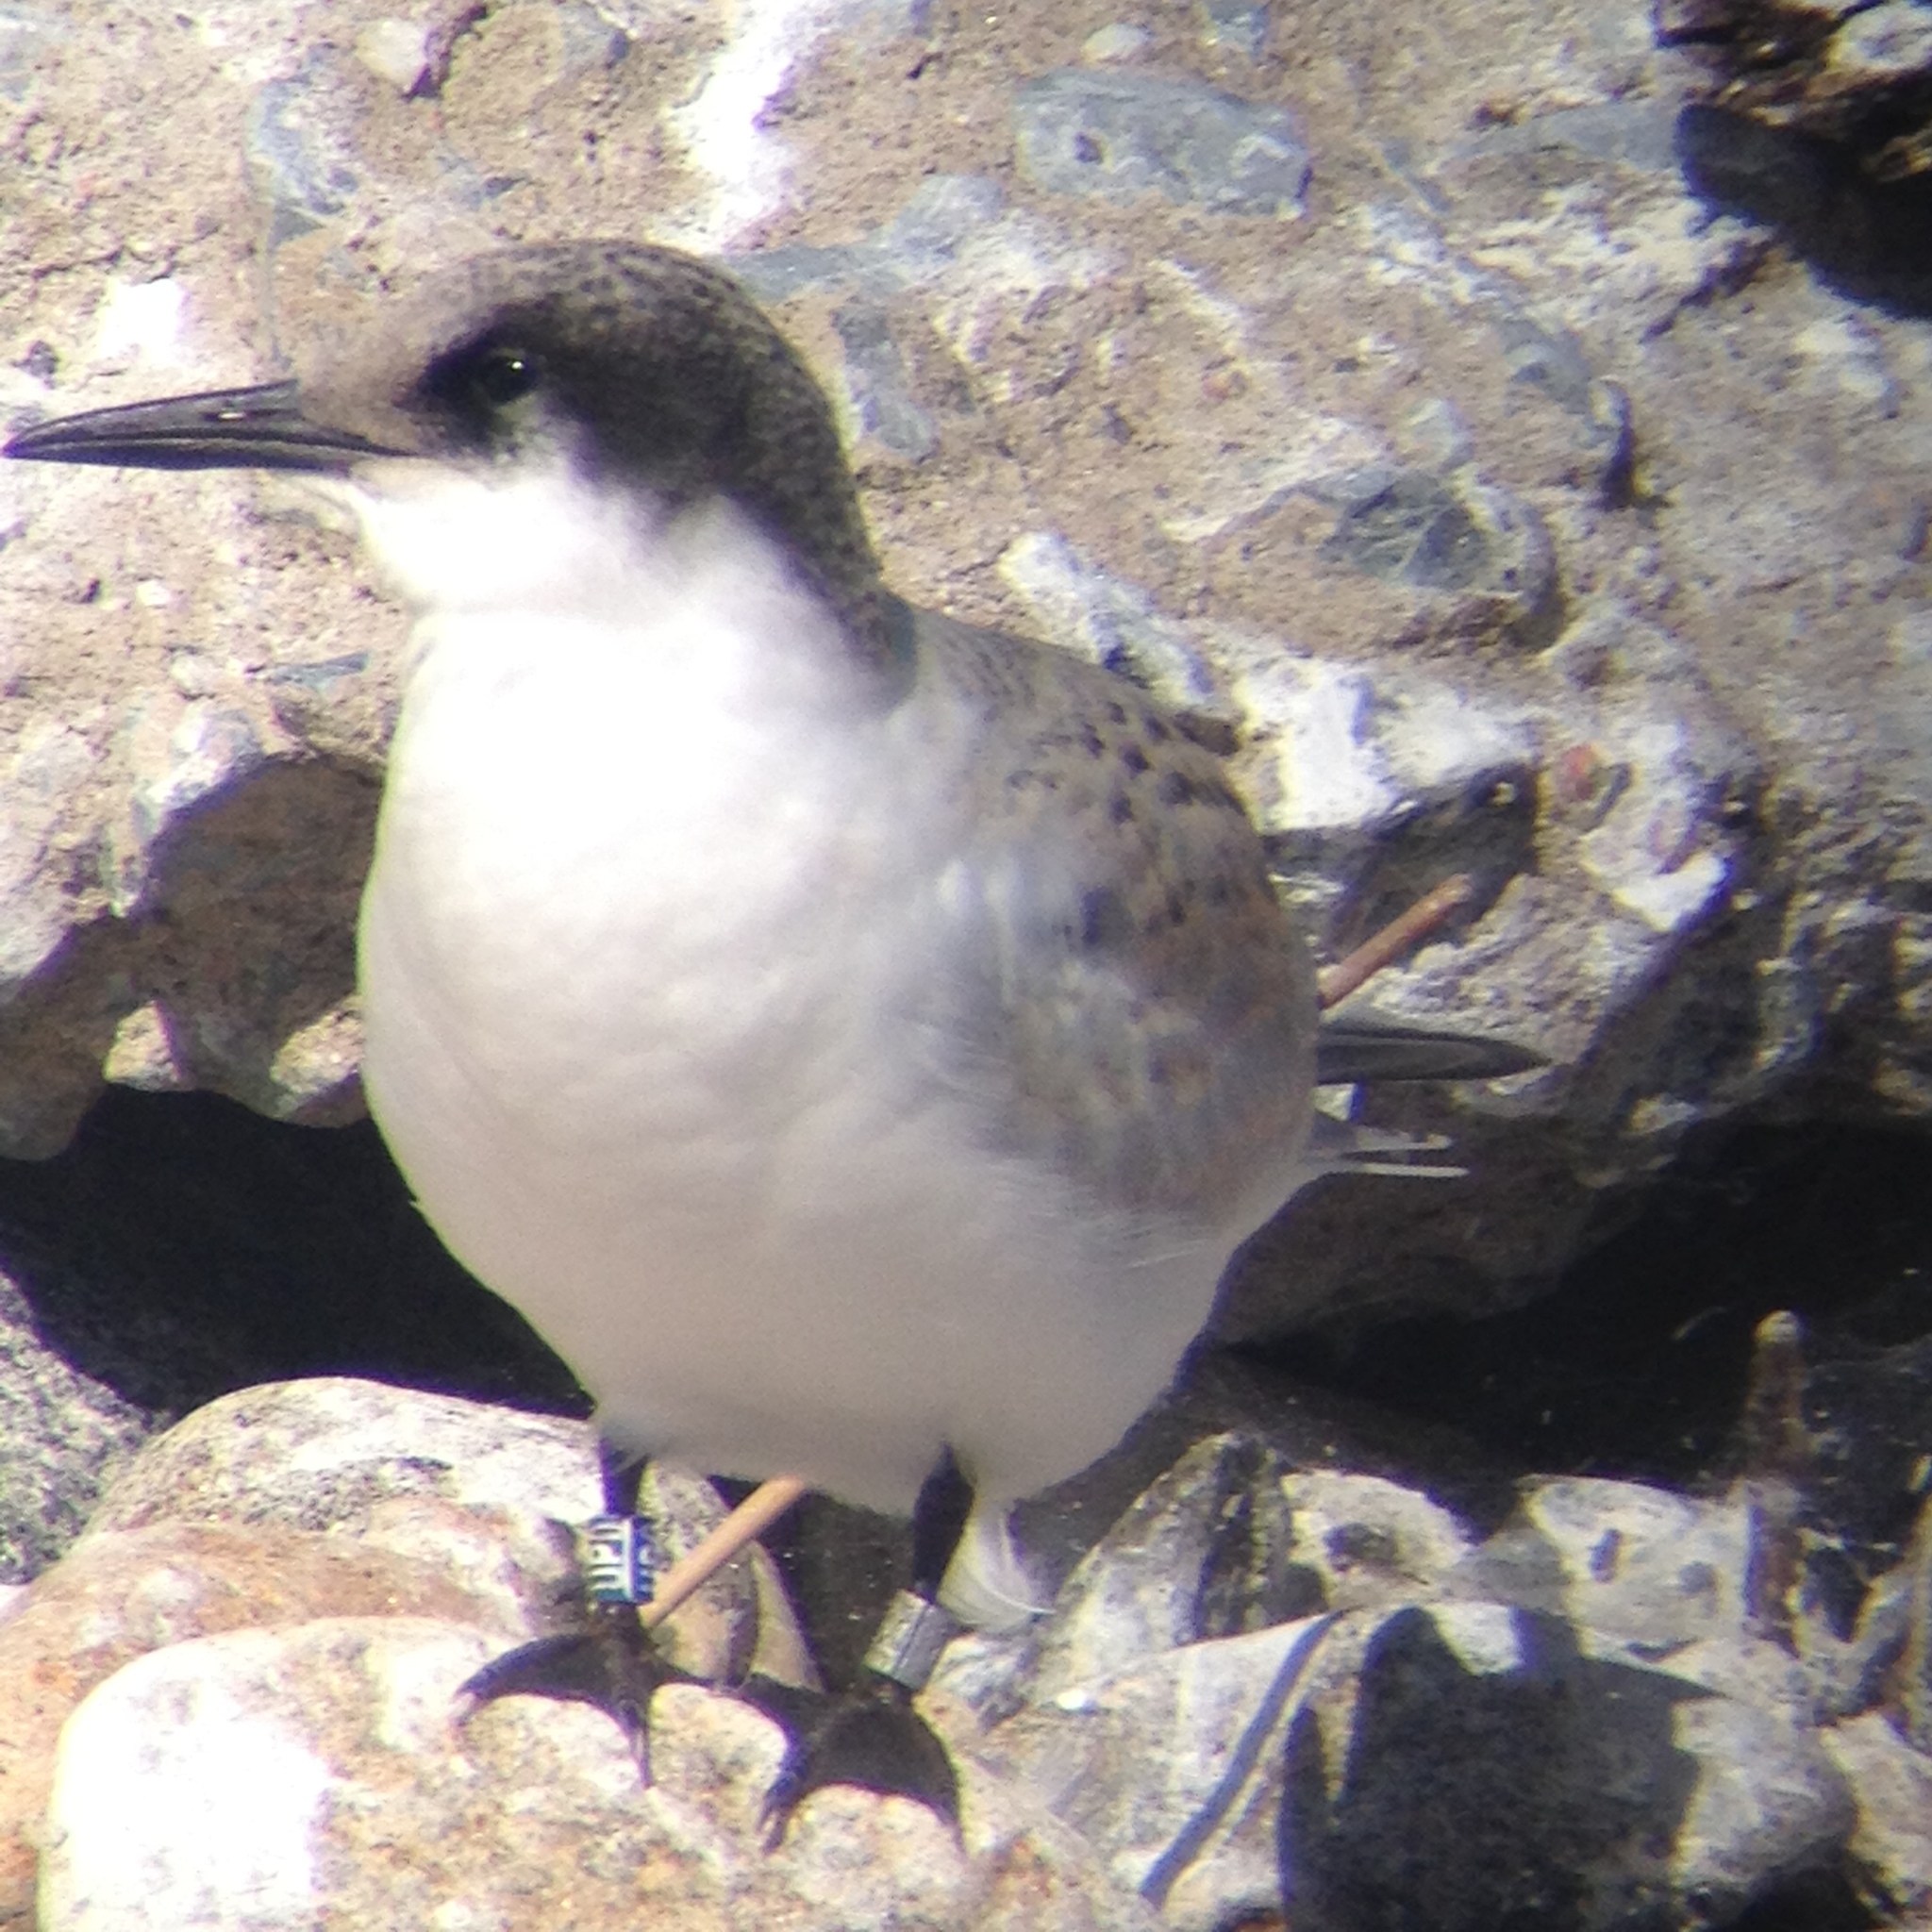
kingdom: Animalia
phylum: Chordata
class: Aves
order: Charadriiformes
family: Laridae
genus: Sterna
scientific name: Sterna dougallii
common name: Roseate tern
